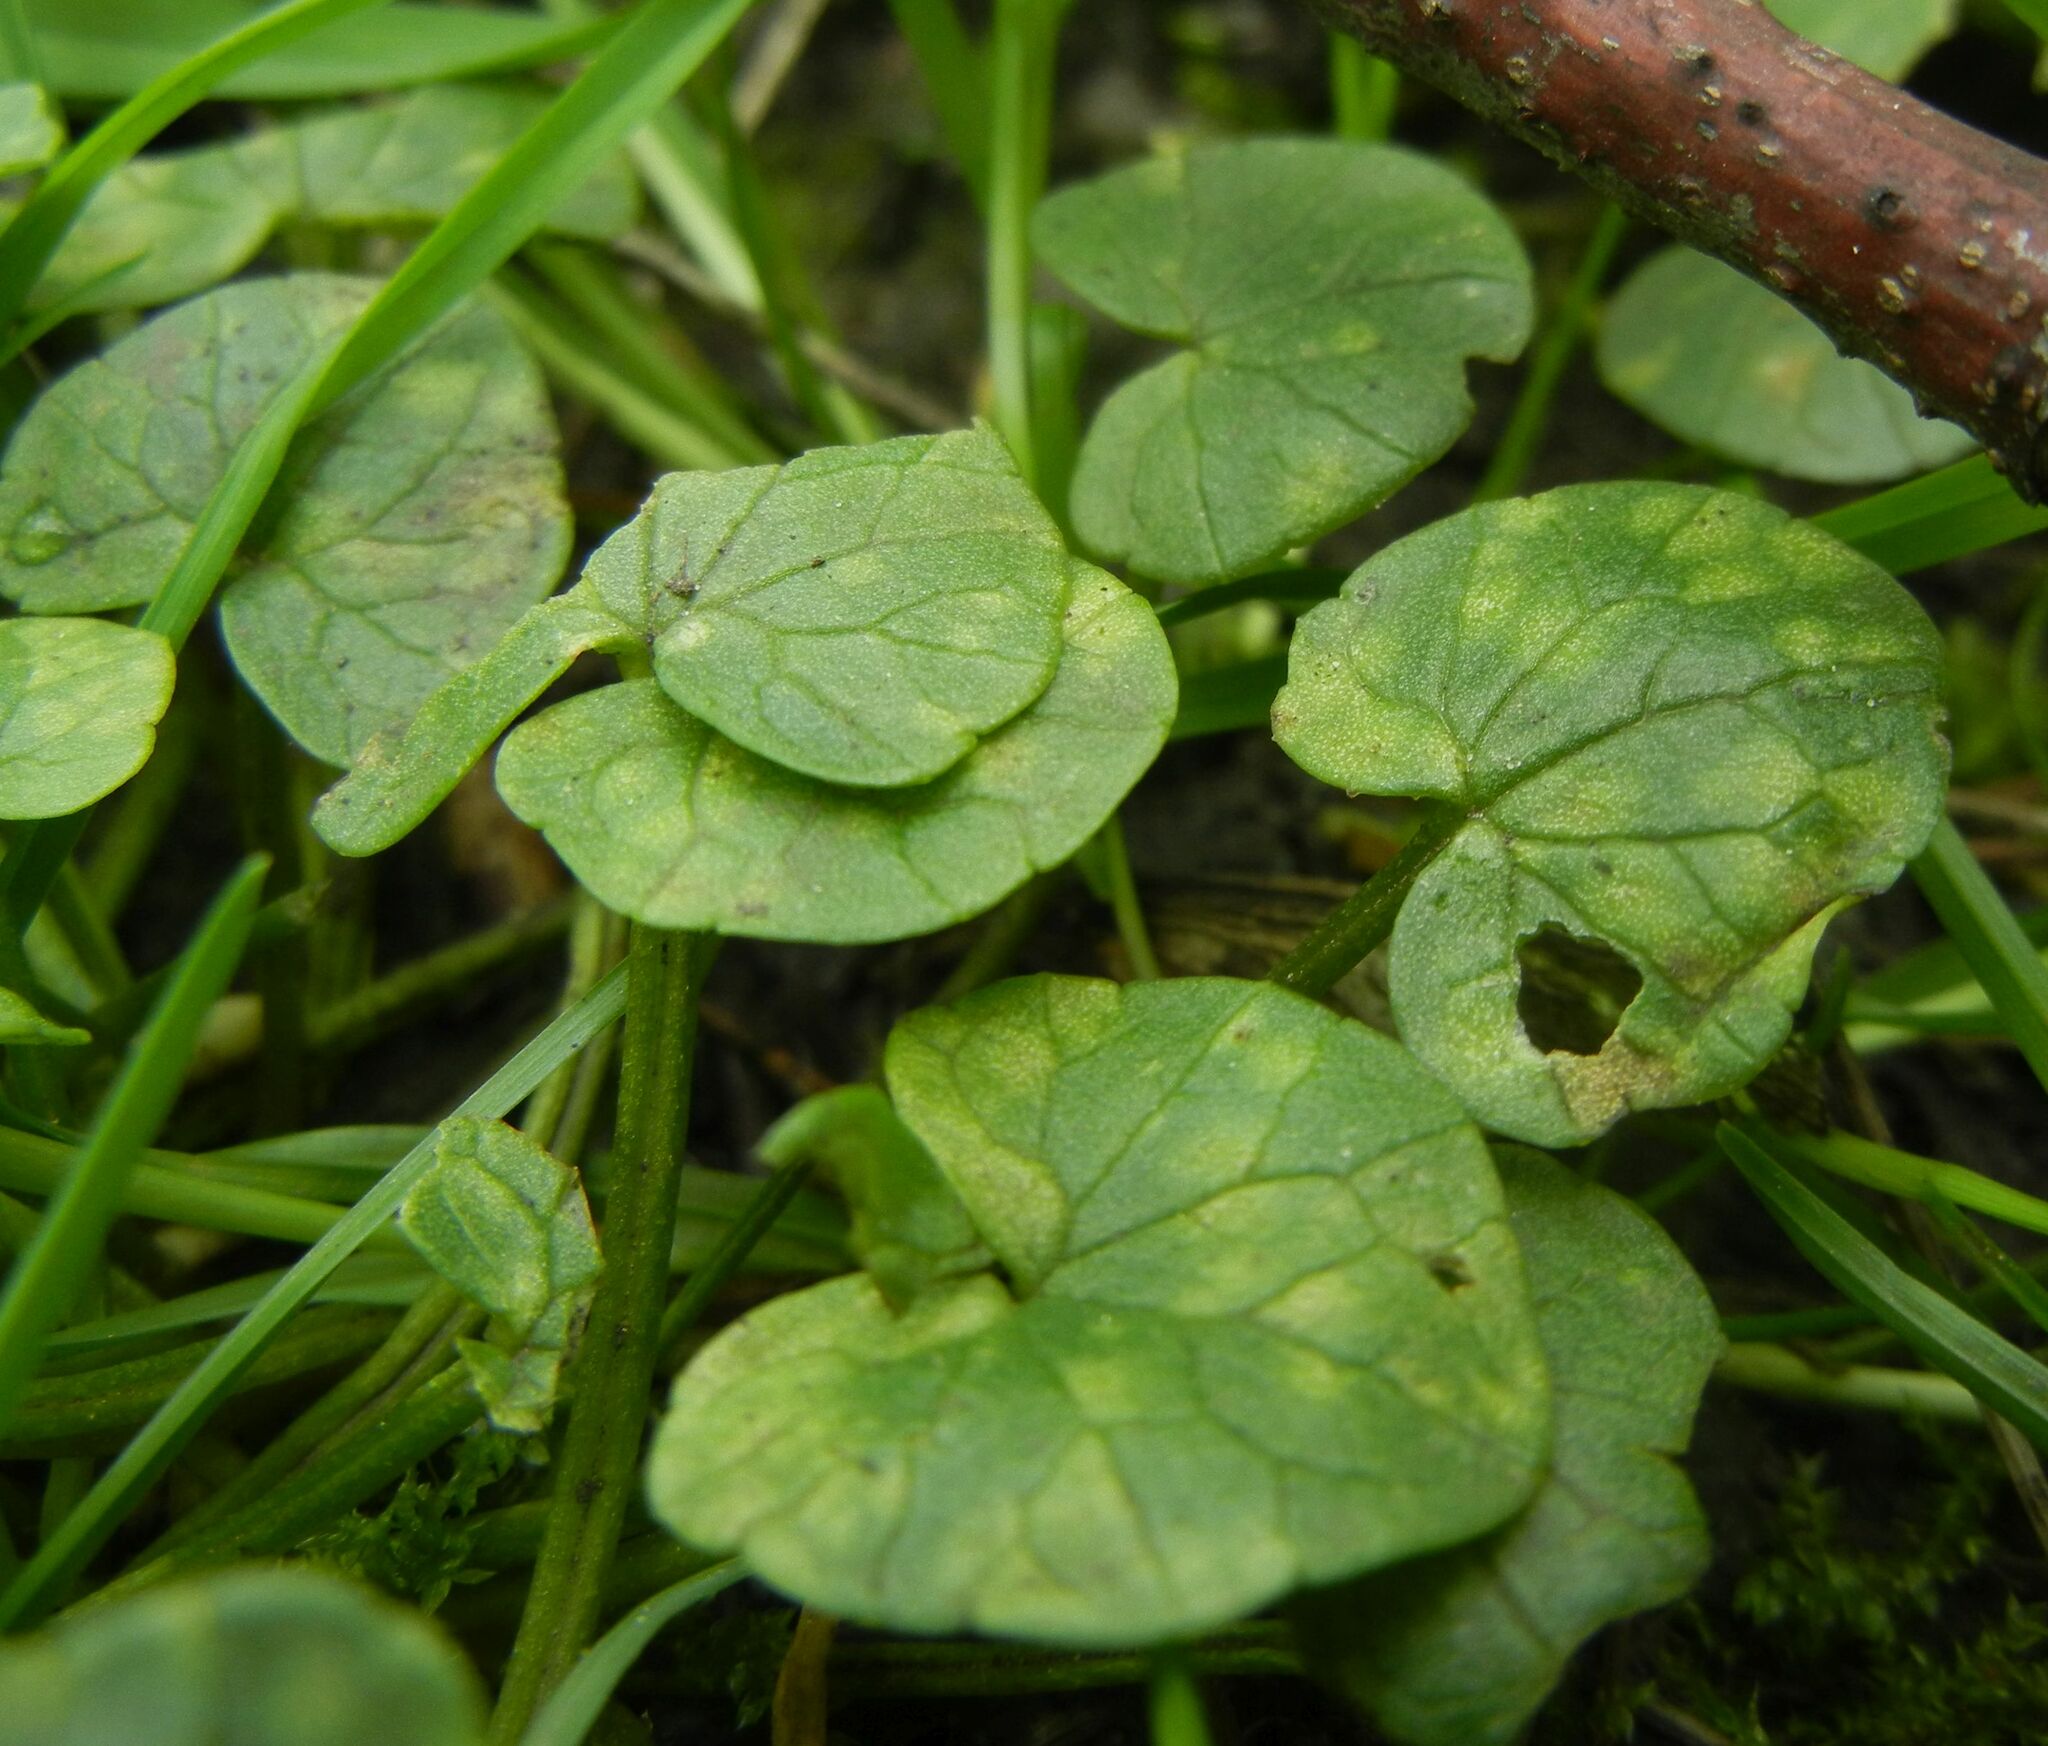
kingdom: Fungi
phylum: Basidiomycota
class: Exobasidiomycetes
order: Entylomatales
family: Entylomataceae
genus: Entyloma
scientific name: Entyloma ficariae
